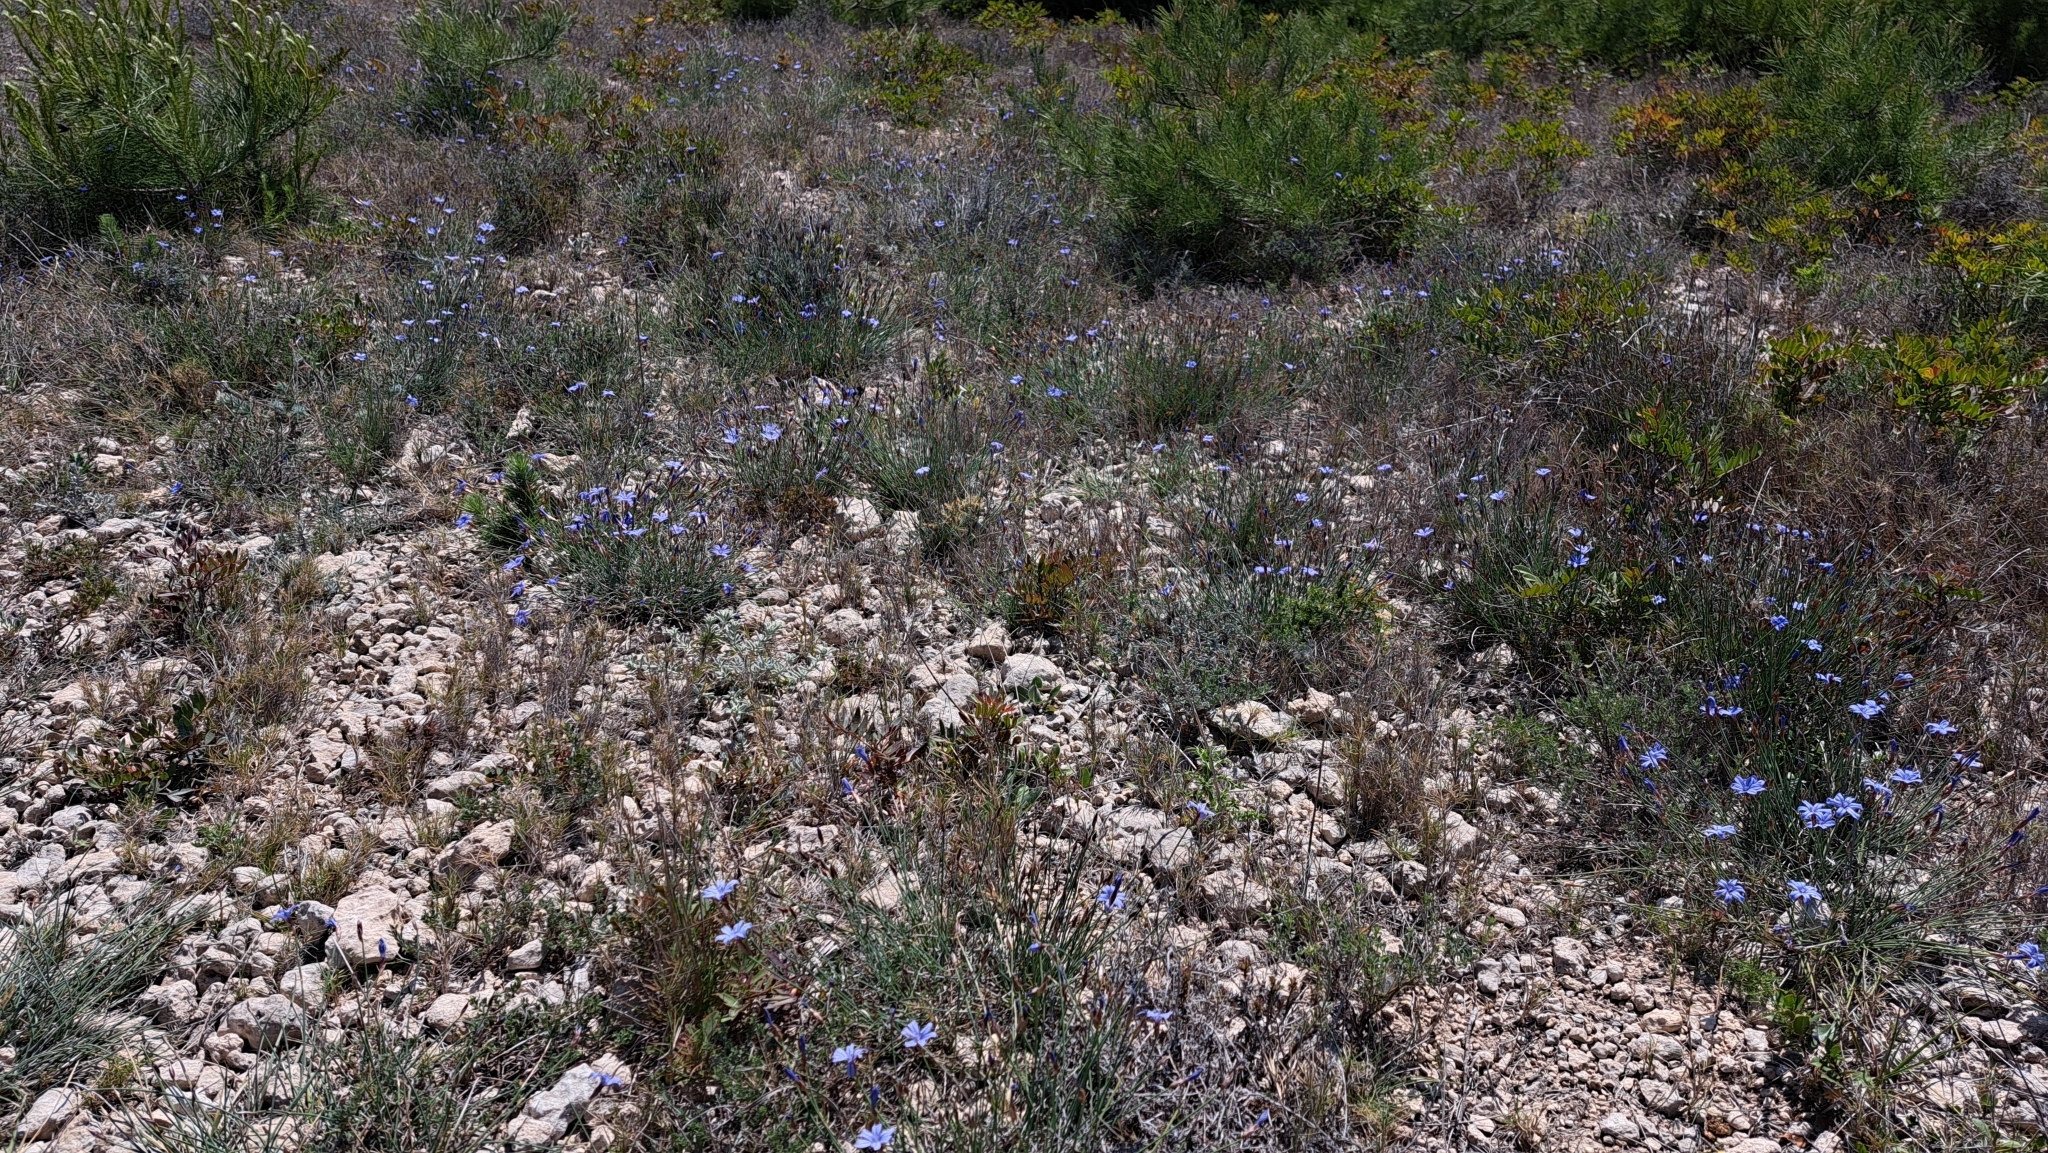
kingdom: Plantae
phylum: Tracheophyta
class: Liliopsida
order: Asparagales
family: Asparagaceae
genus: Aphyllanthes
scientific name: Aphyllanthes monspeliensis
